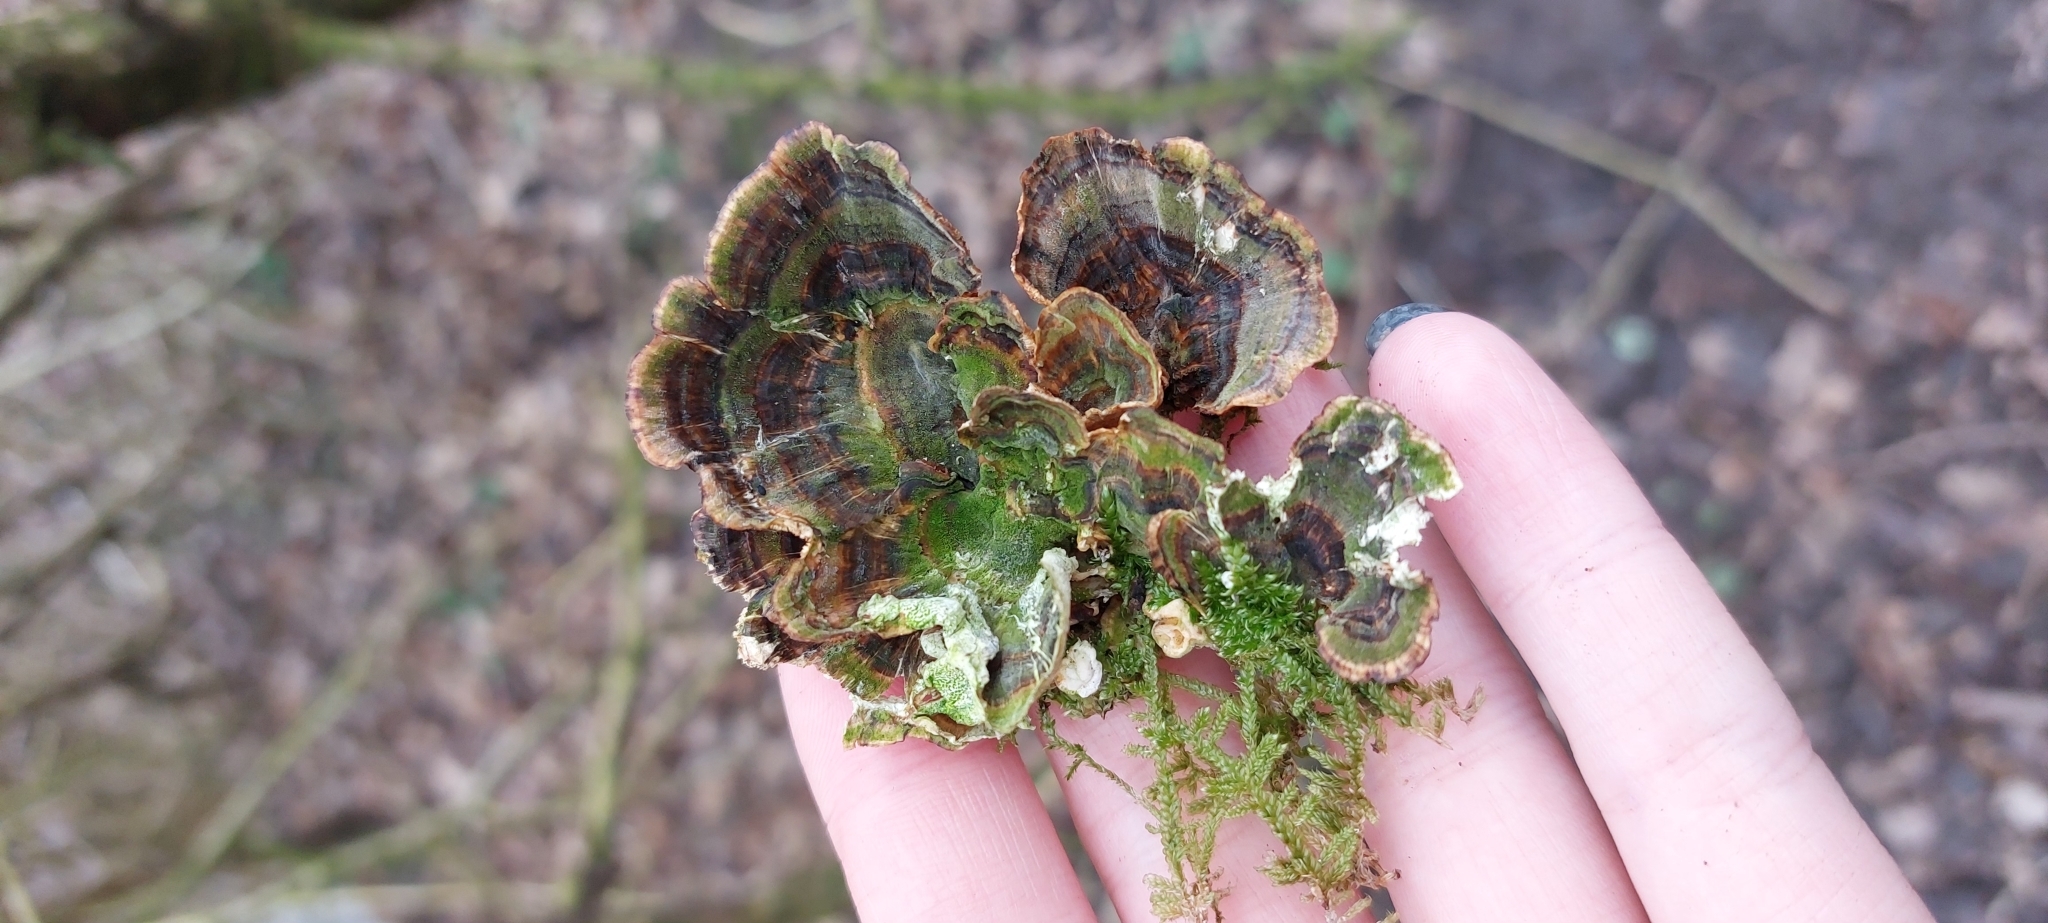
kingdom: Fungi
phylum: Basidiomycota
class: Agaricomycetes
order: Polyporales
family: Polyporaceae
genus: Trametes
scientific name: Trametes versicolor
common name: Turkeytail
